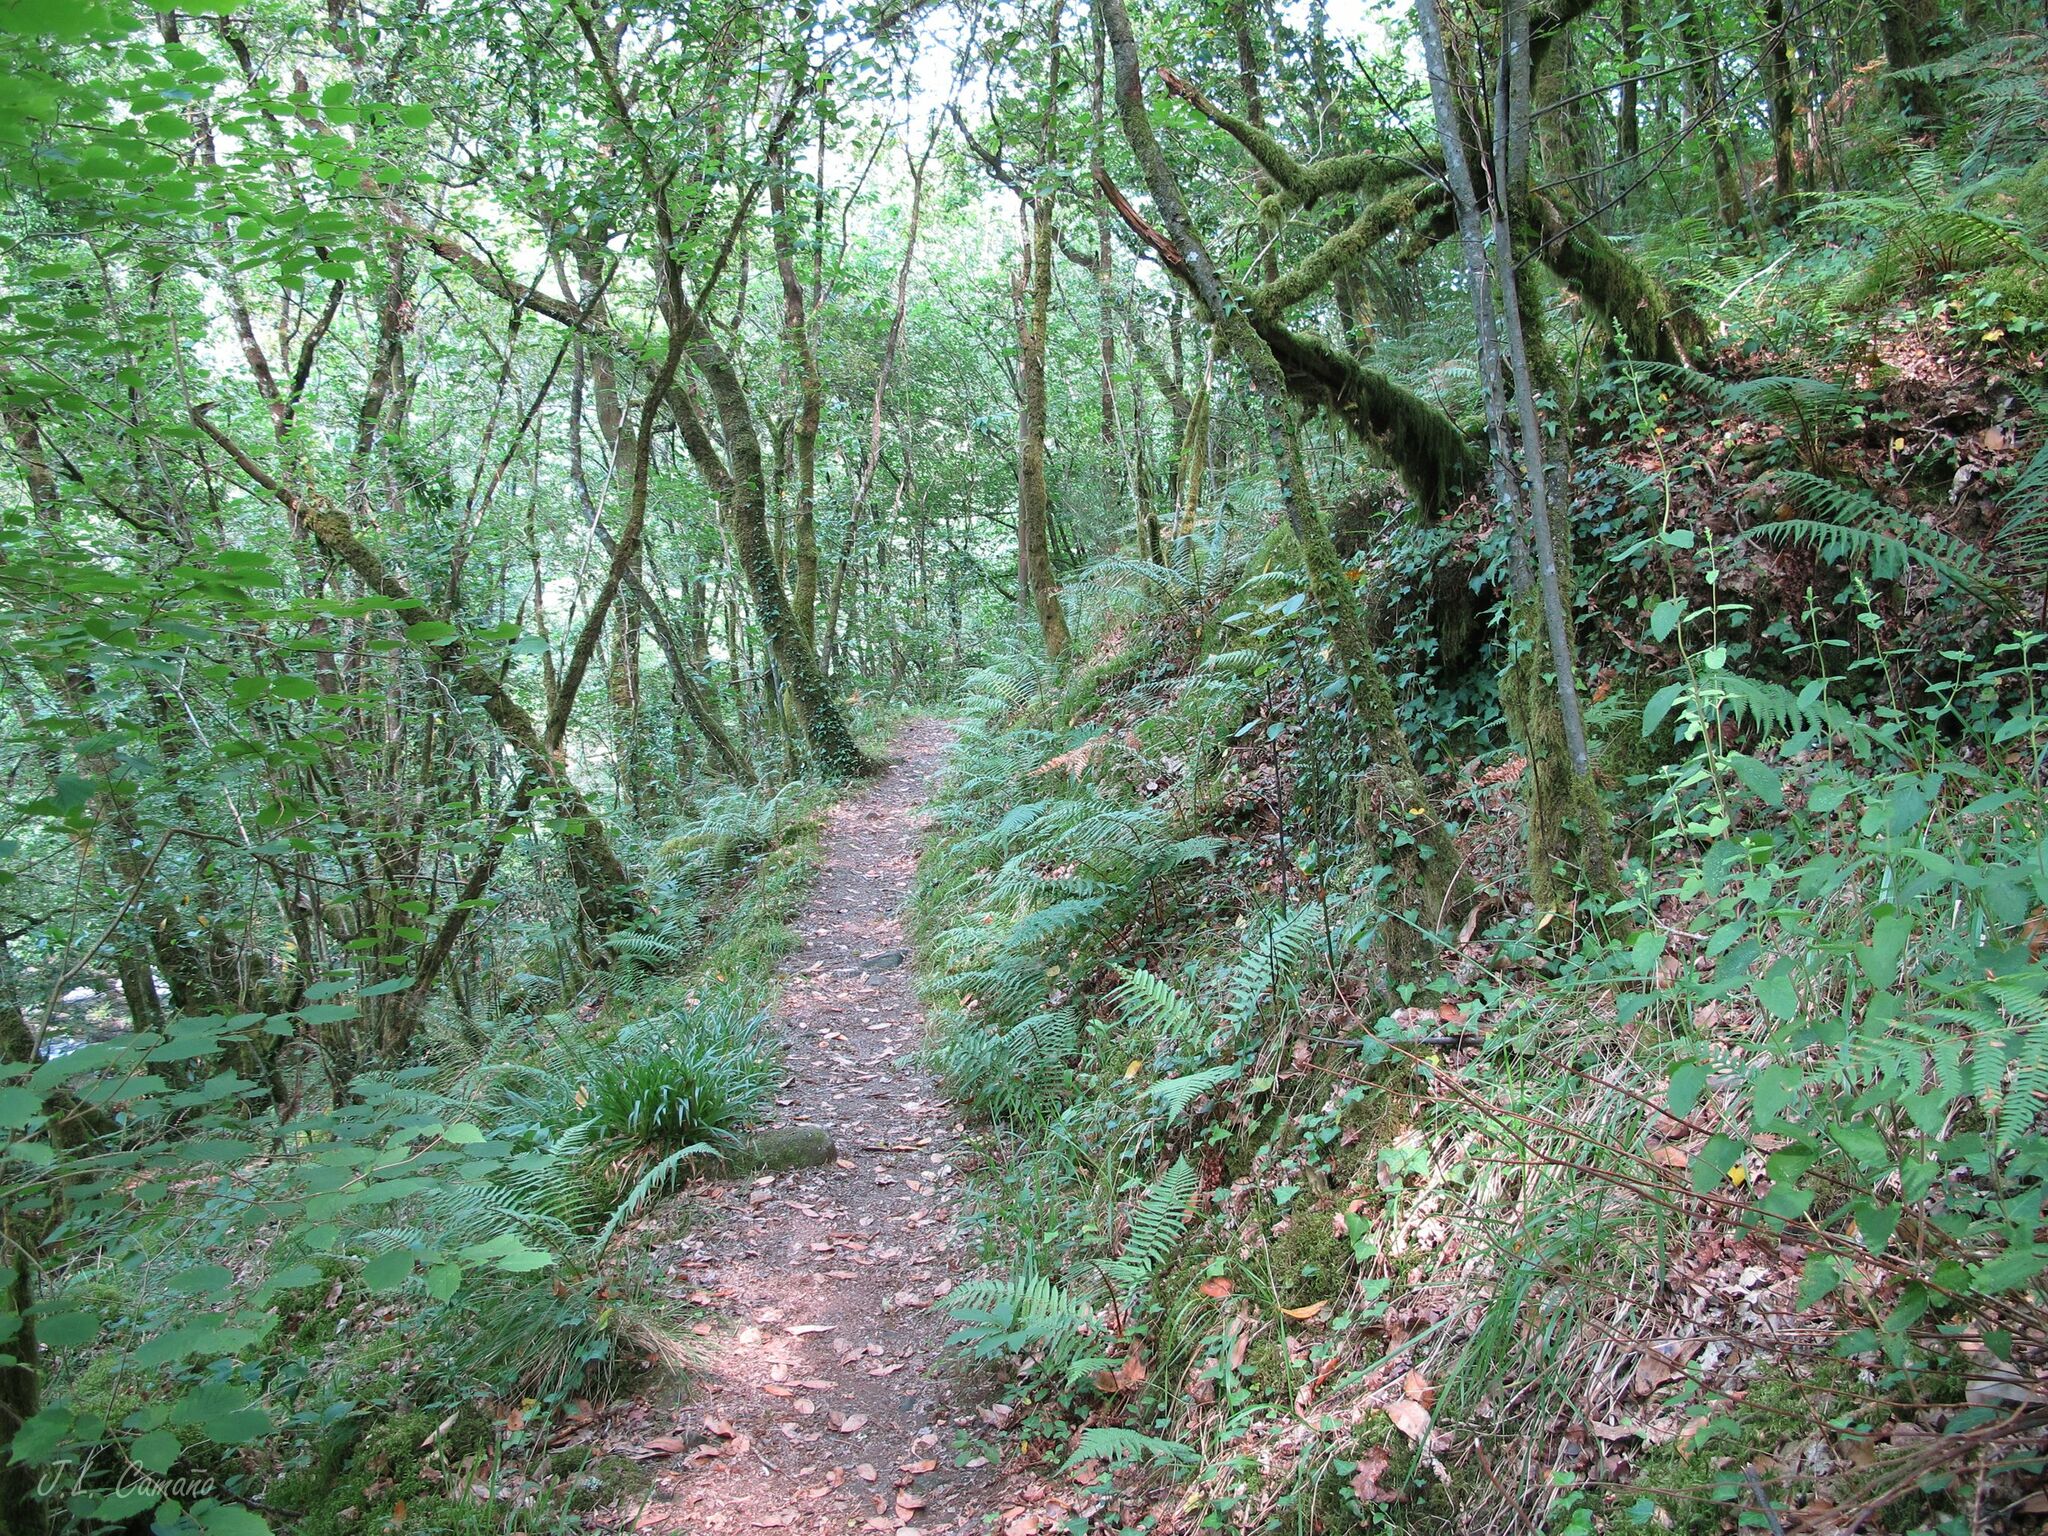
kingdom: Plantae
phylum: Bryophyta
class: Bryopsida
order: Hookeriales
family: Hookeriaceae
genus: Hookeria
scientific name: Hookeria lucens
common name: Shining hookeria
